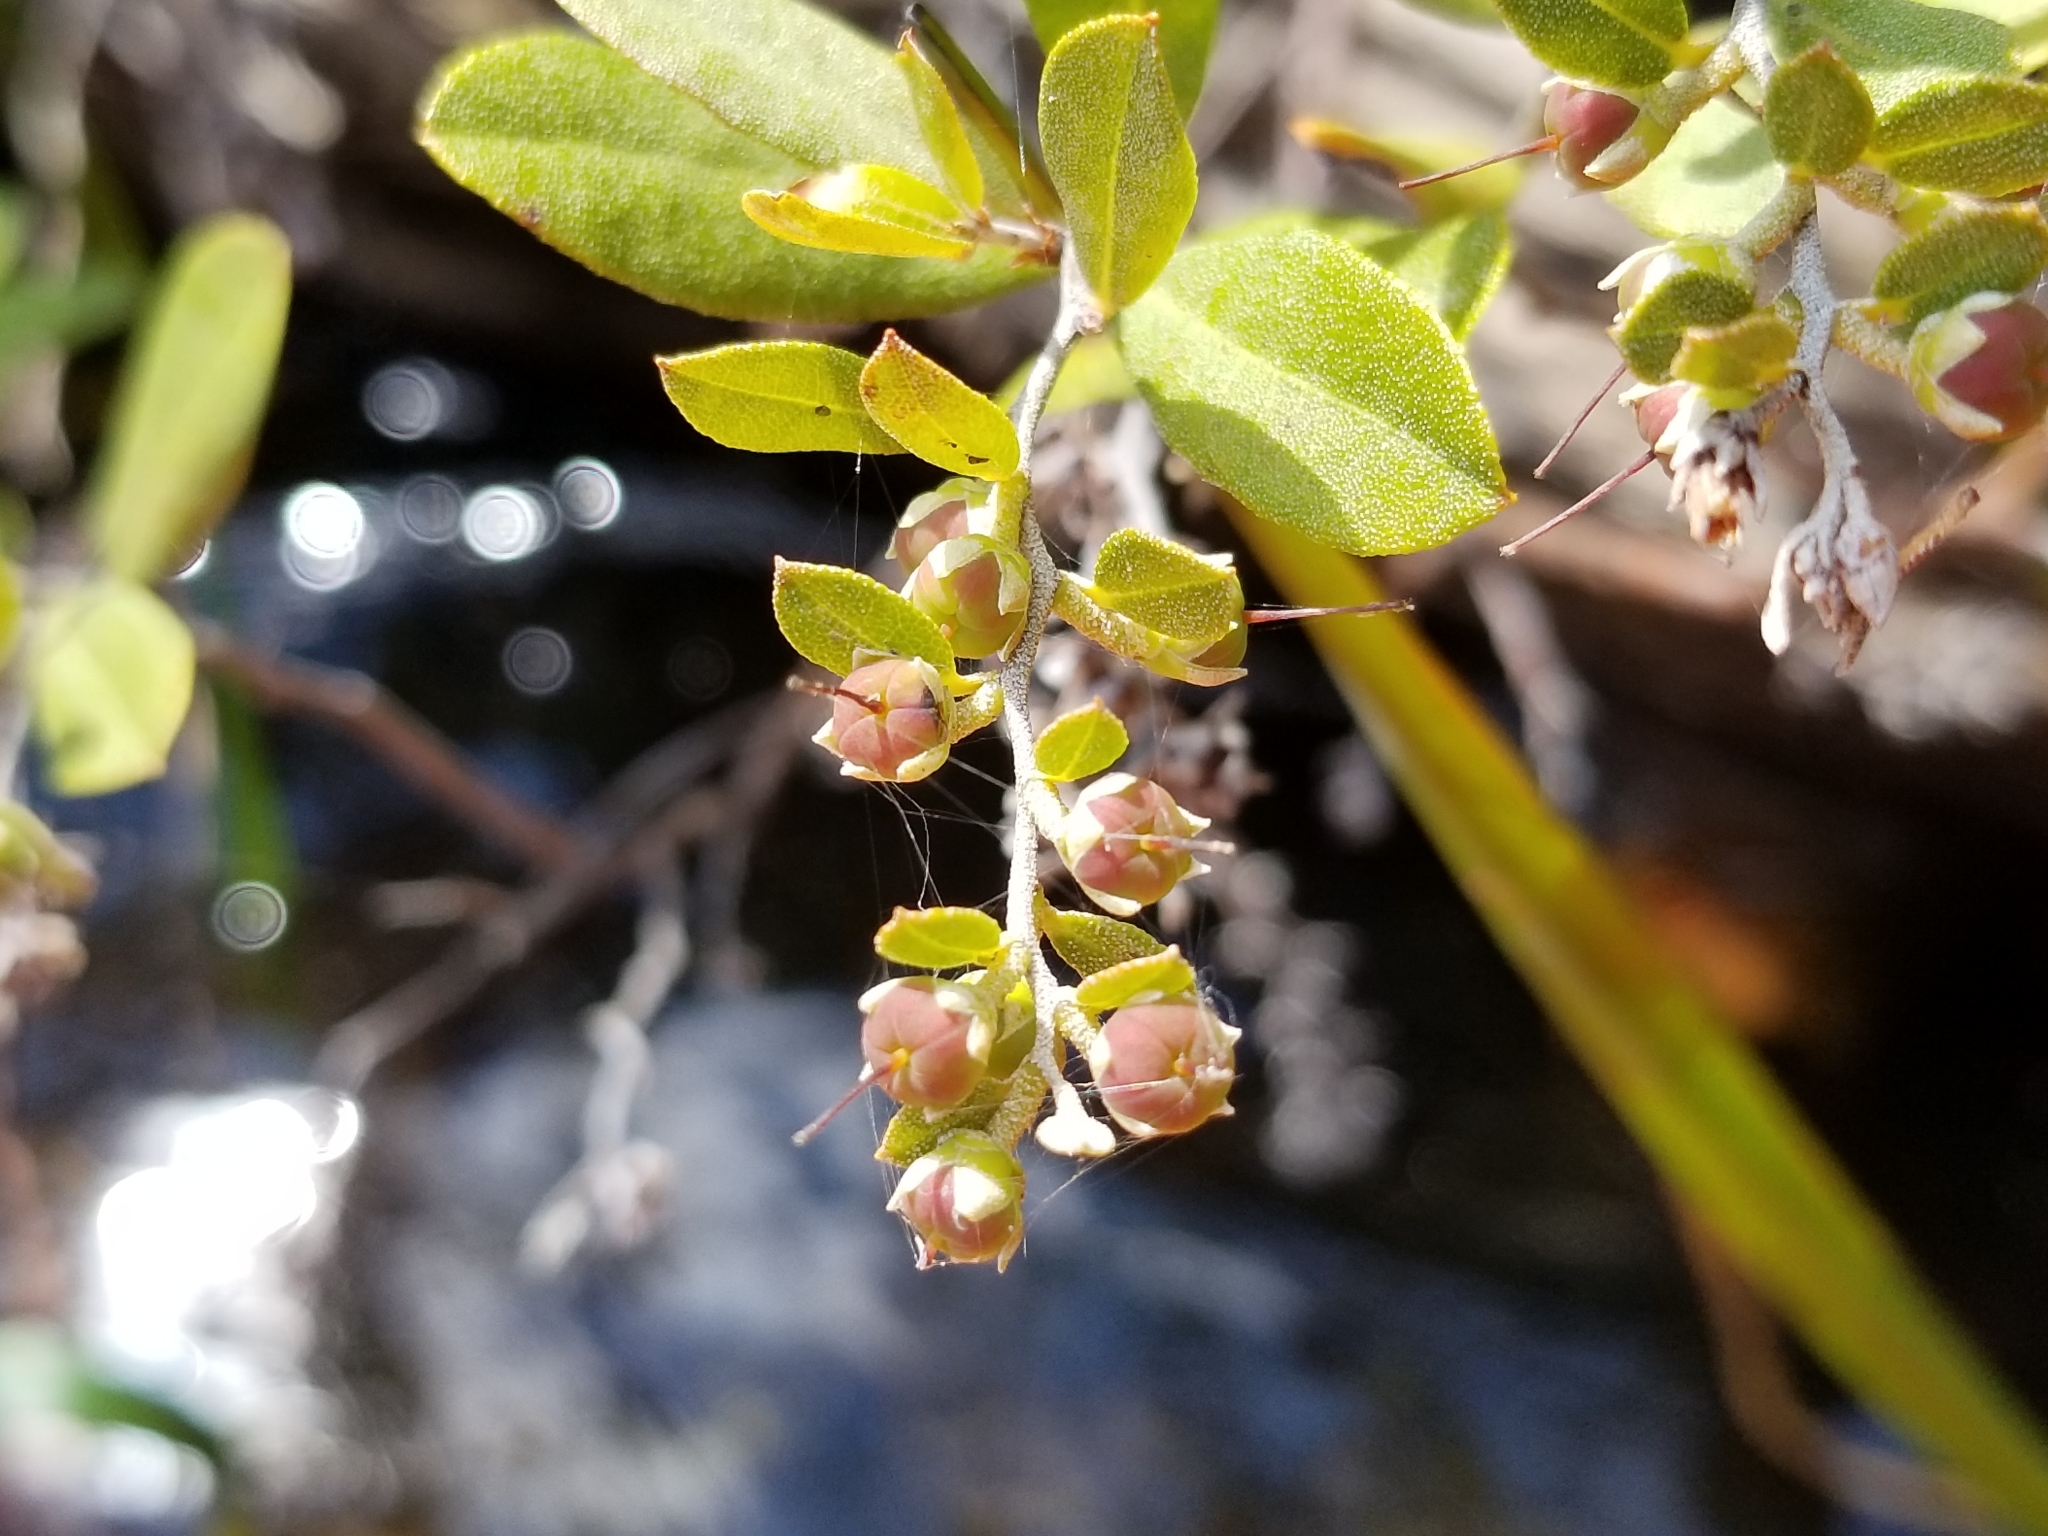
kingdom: Plantae
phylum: Tracheophyta
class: Magnoliopsida
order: Ericales
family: Ericaceae
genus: Chamaedaphne
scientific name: Chamaedaphne calyculata
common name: Leatherleaf
